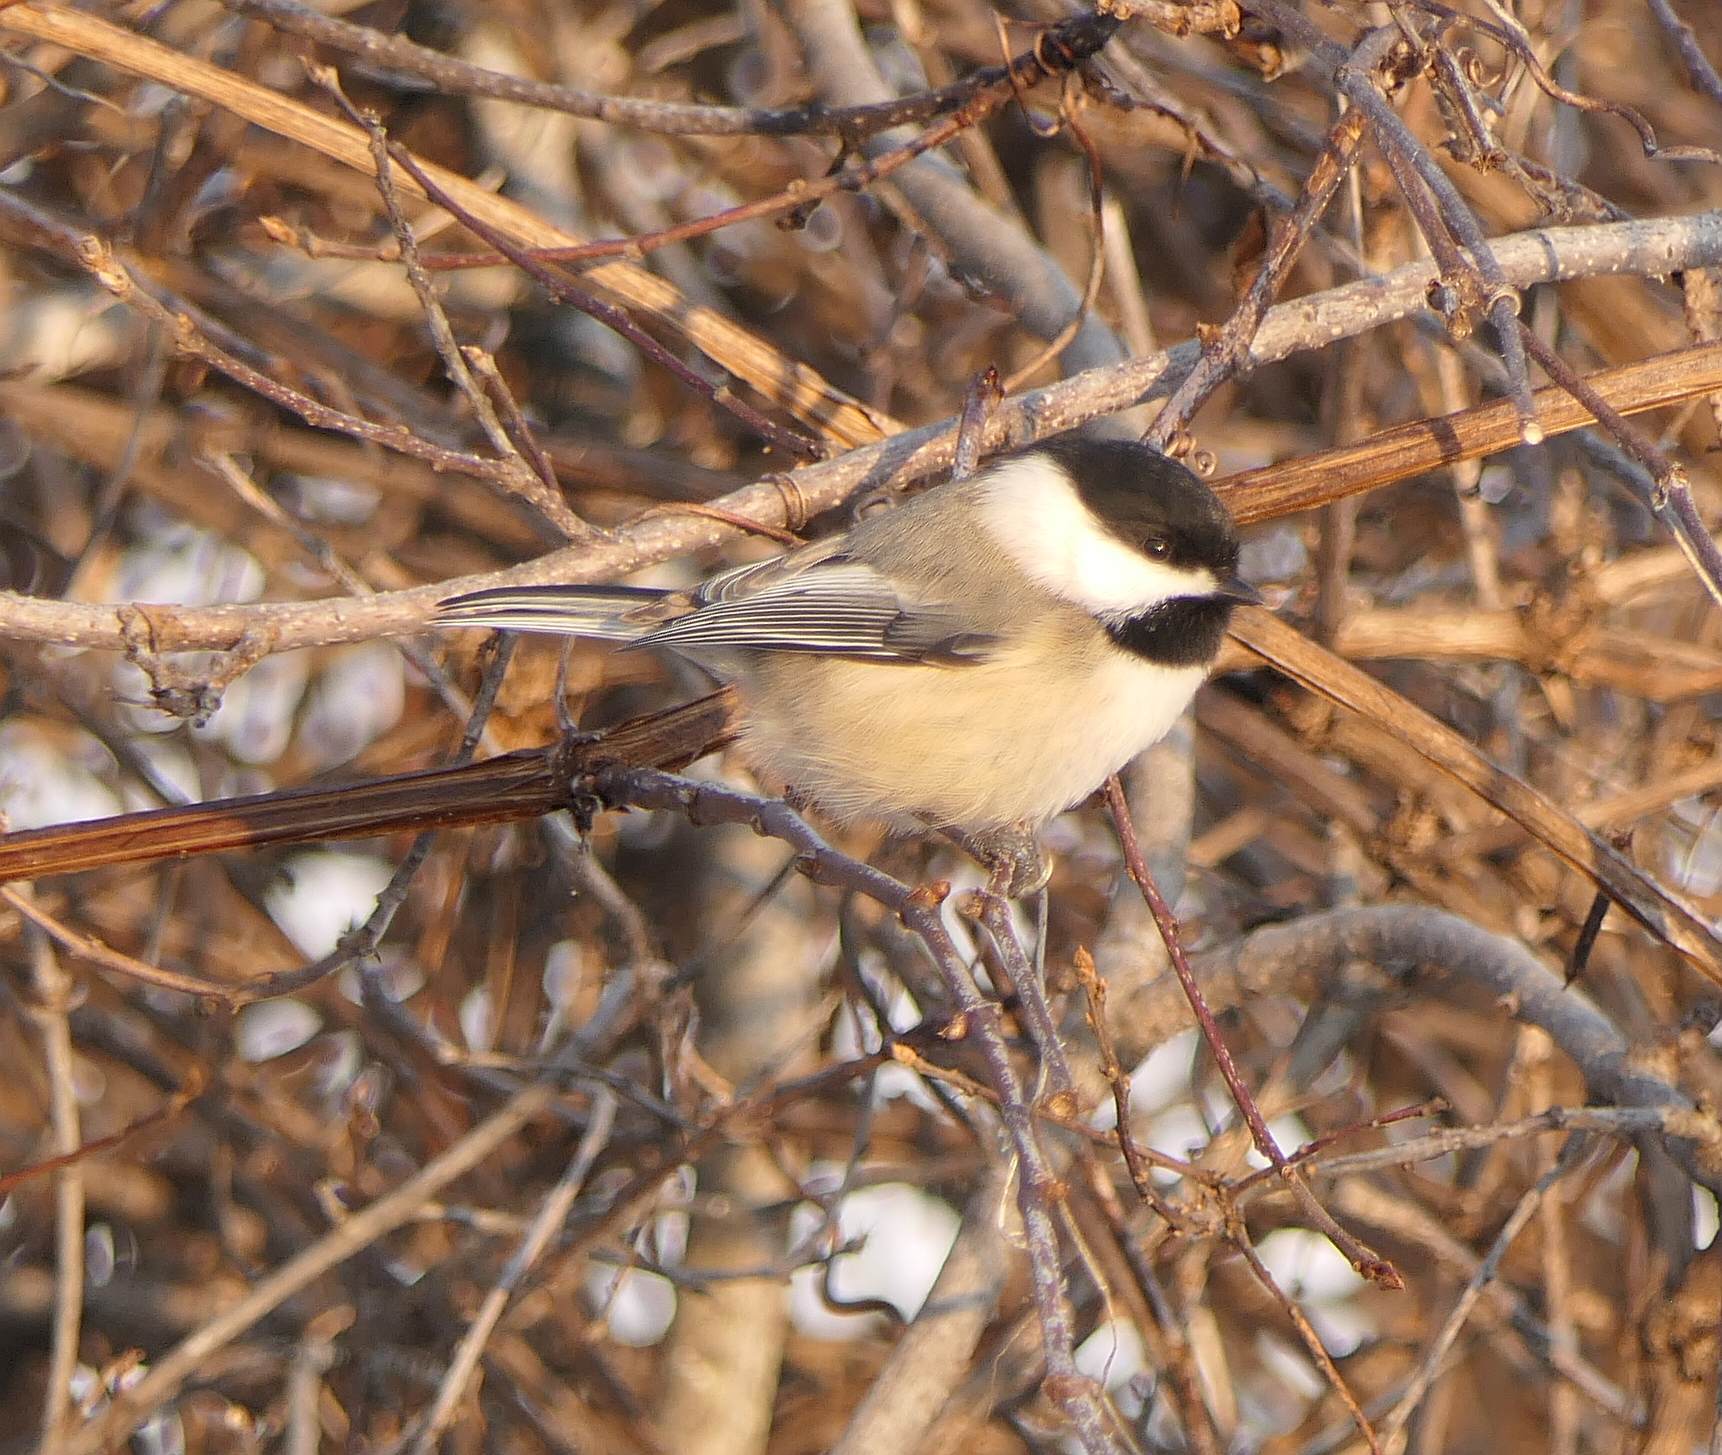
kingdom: Animalia
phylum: Chordata
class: Aves
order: Passeriformes
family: Paridae
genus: Poecile
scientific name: Poecile atricapillus
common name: Black-capped chickadee
